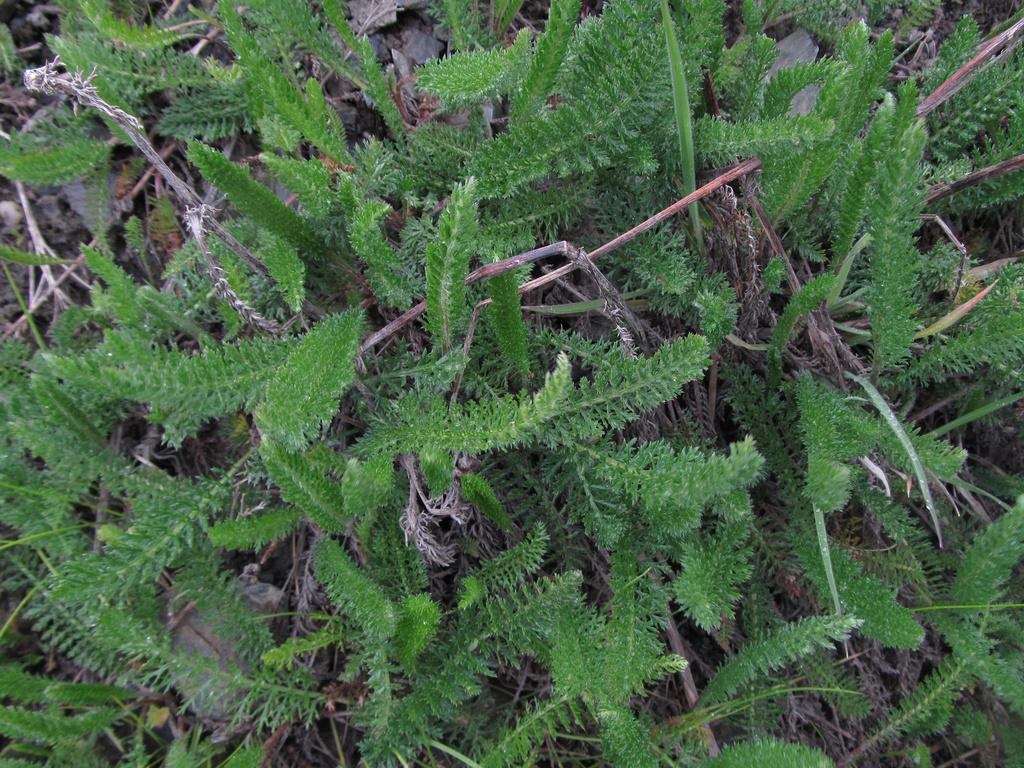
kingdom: Plantae
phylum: Tracheophyta
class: Magnoliopsida
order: Asterales
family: Asteraceae
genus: Achillea
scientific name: Achillea millefolium
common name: Yarrow
